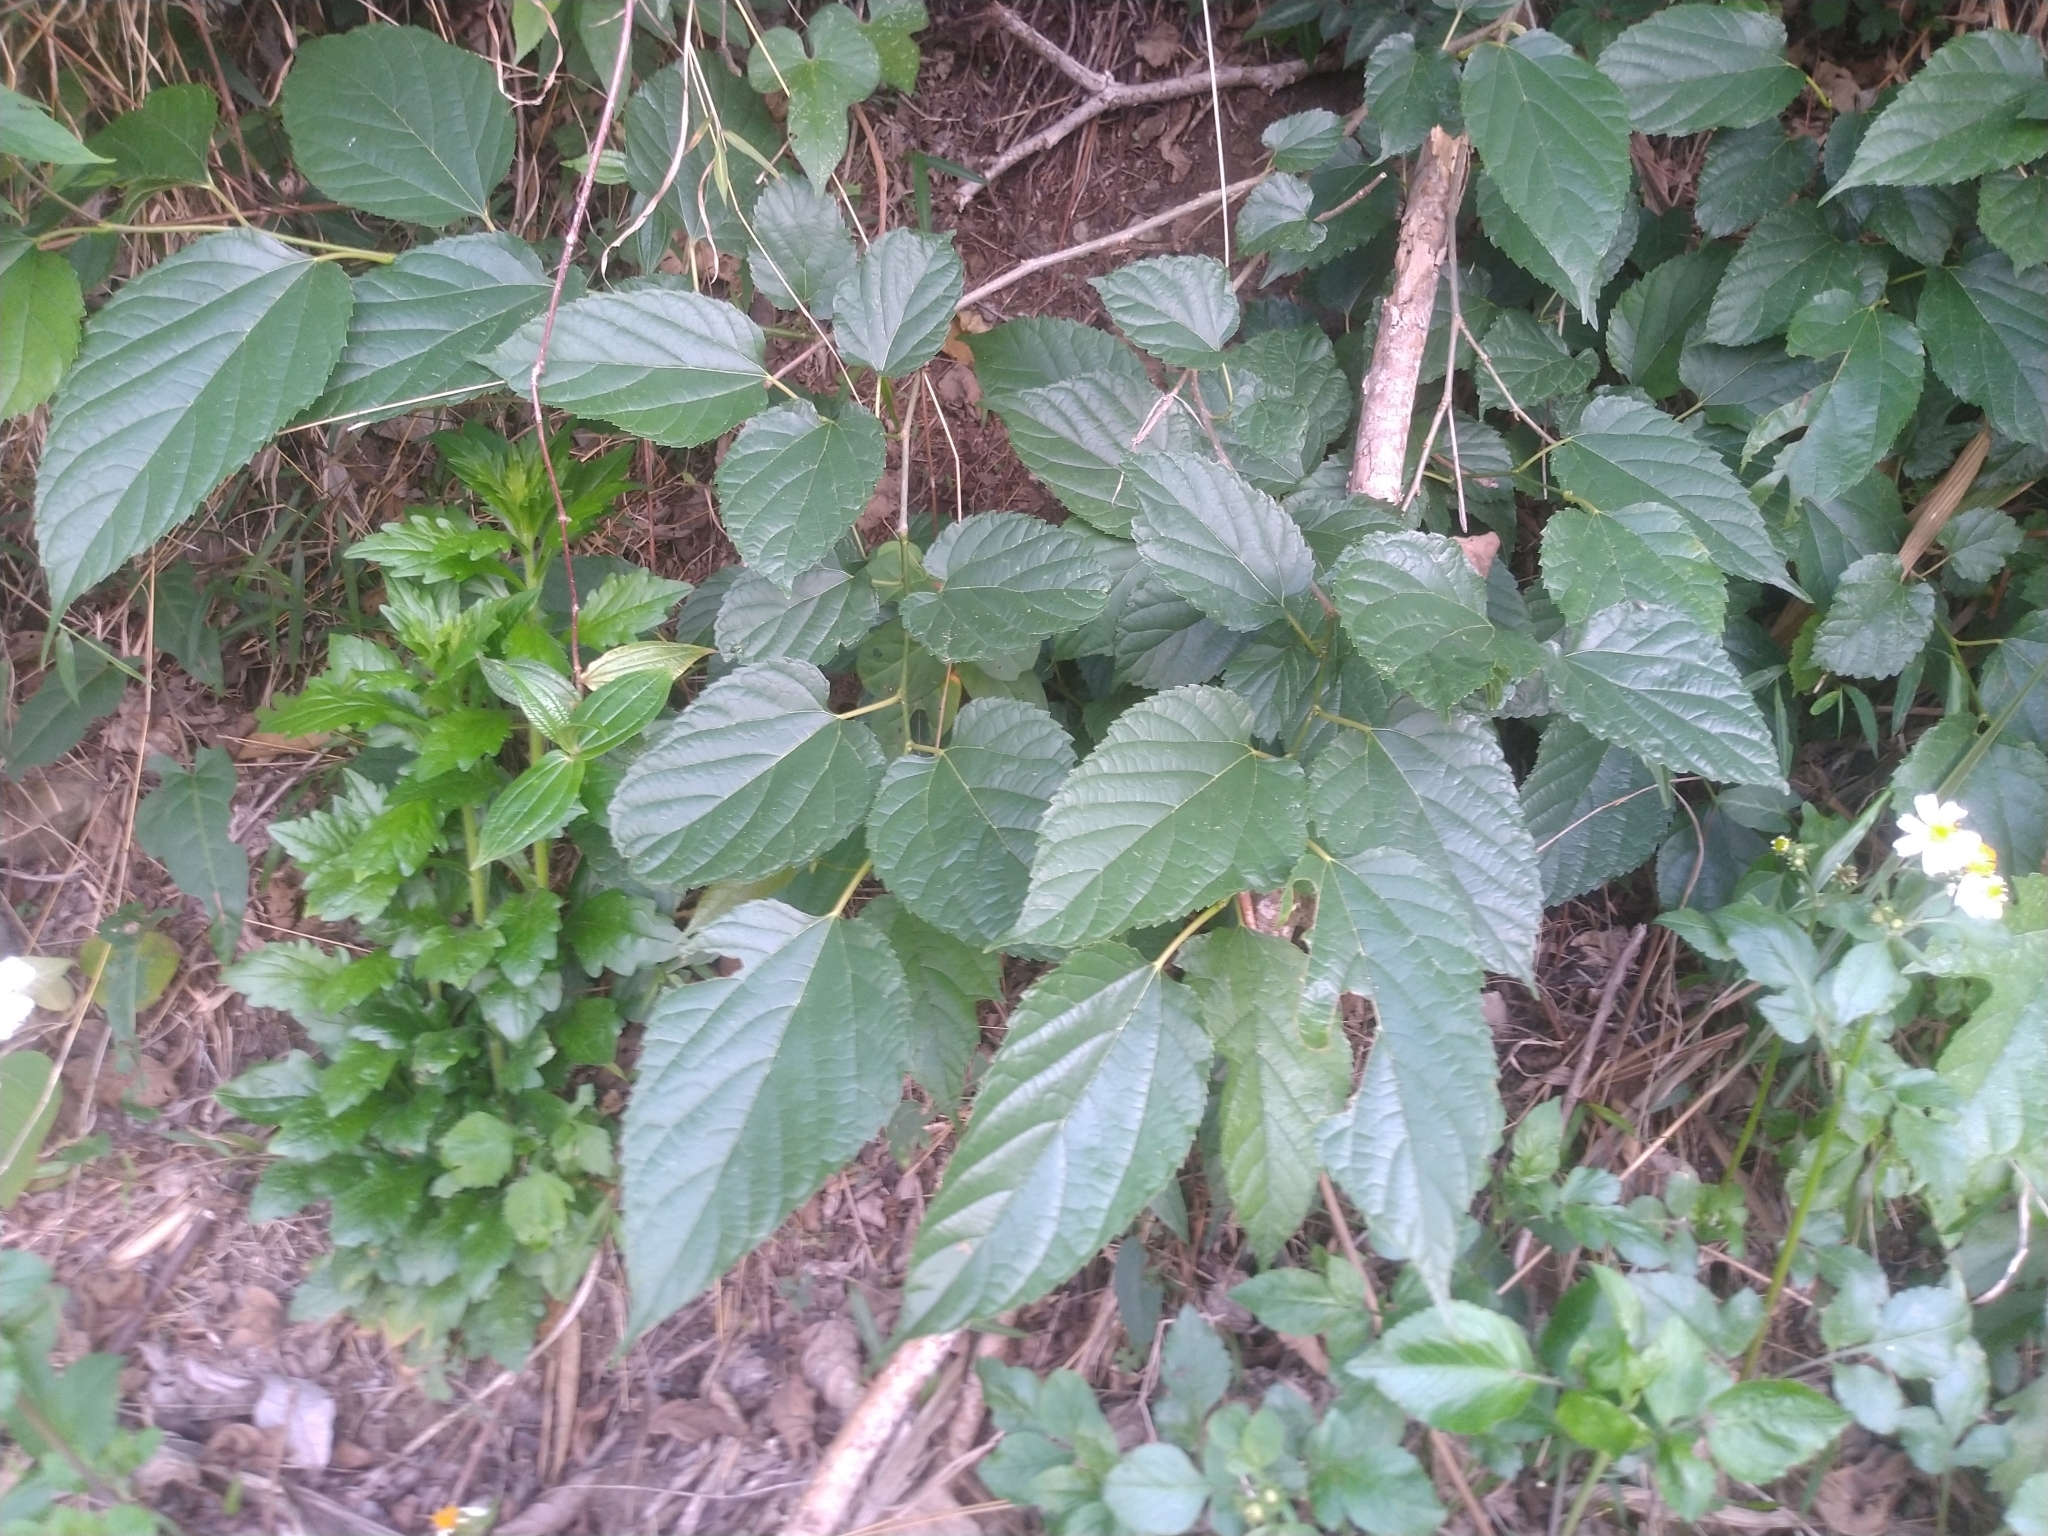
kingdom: Plantae
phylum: Tracheophyta
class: Magnoliopsida
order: Rosales
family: Moraceae
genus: Morus
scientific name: Morus indica
